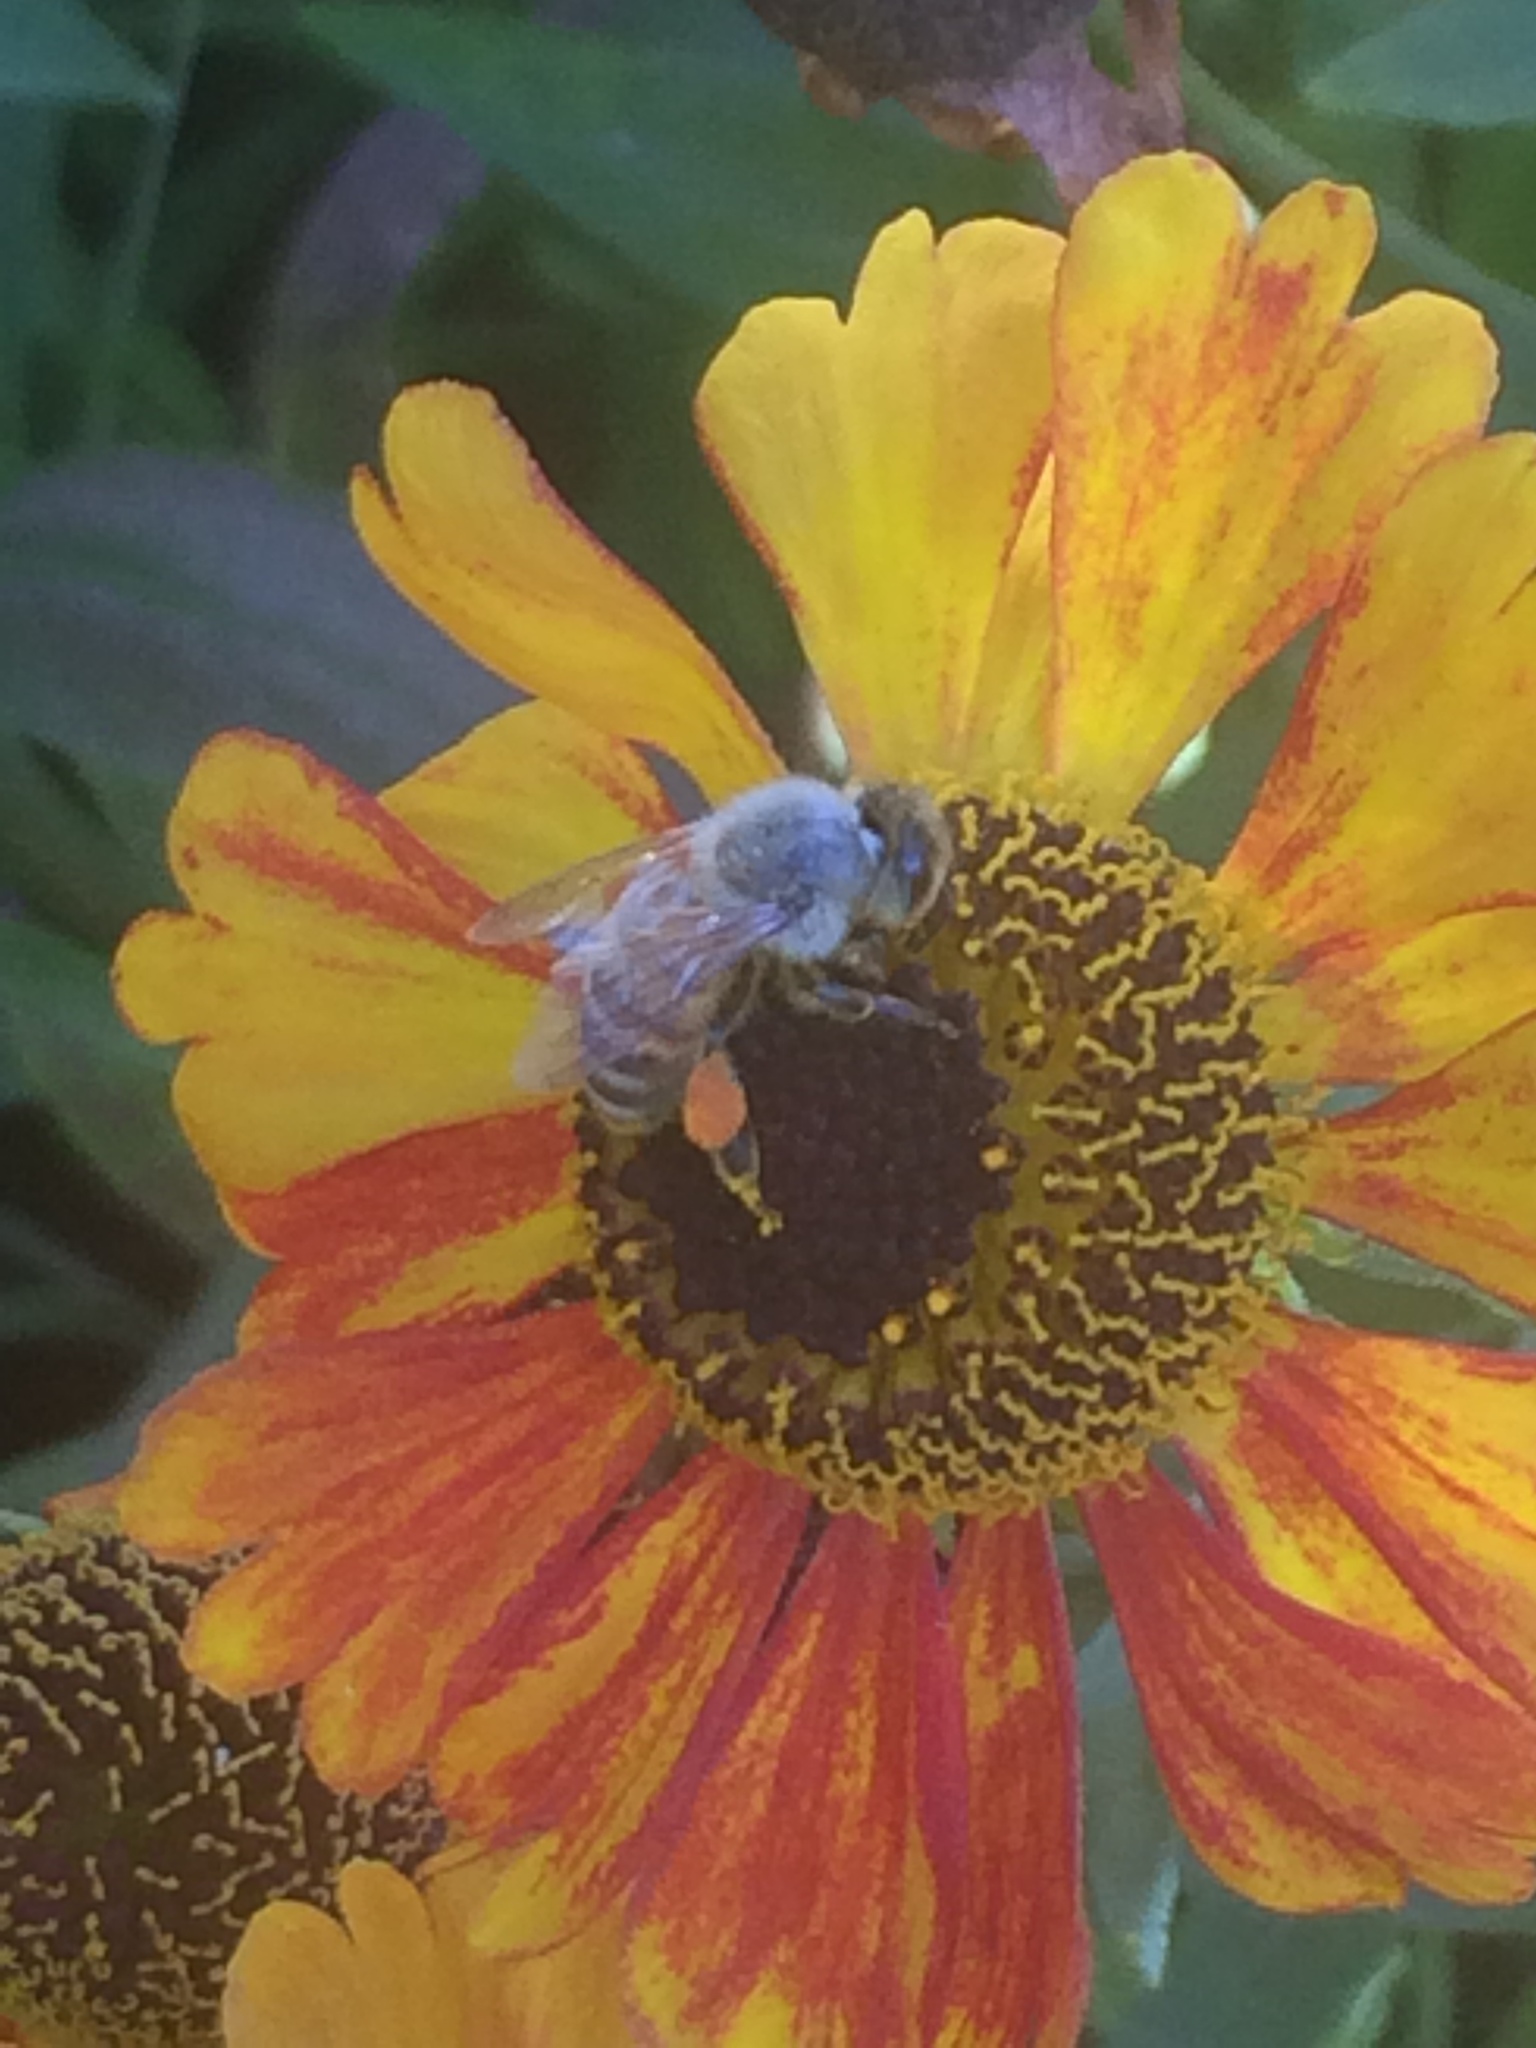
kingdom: Animalia
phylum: Arthropoda
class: Insecta
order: Hymenoptera
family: Apidae
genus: Apis
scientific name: Apis mellifera
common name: Honey bee
